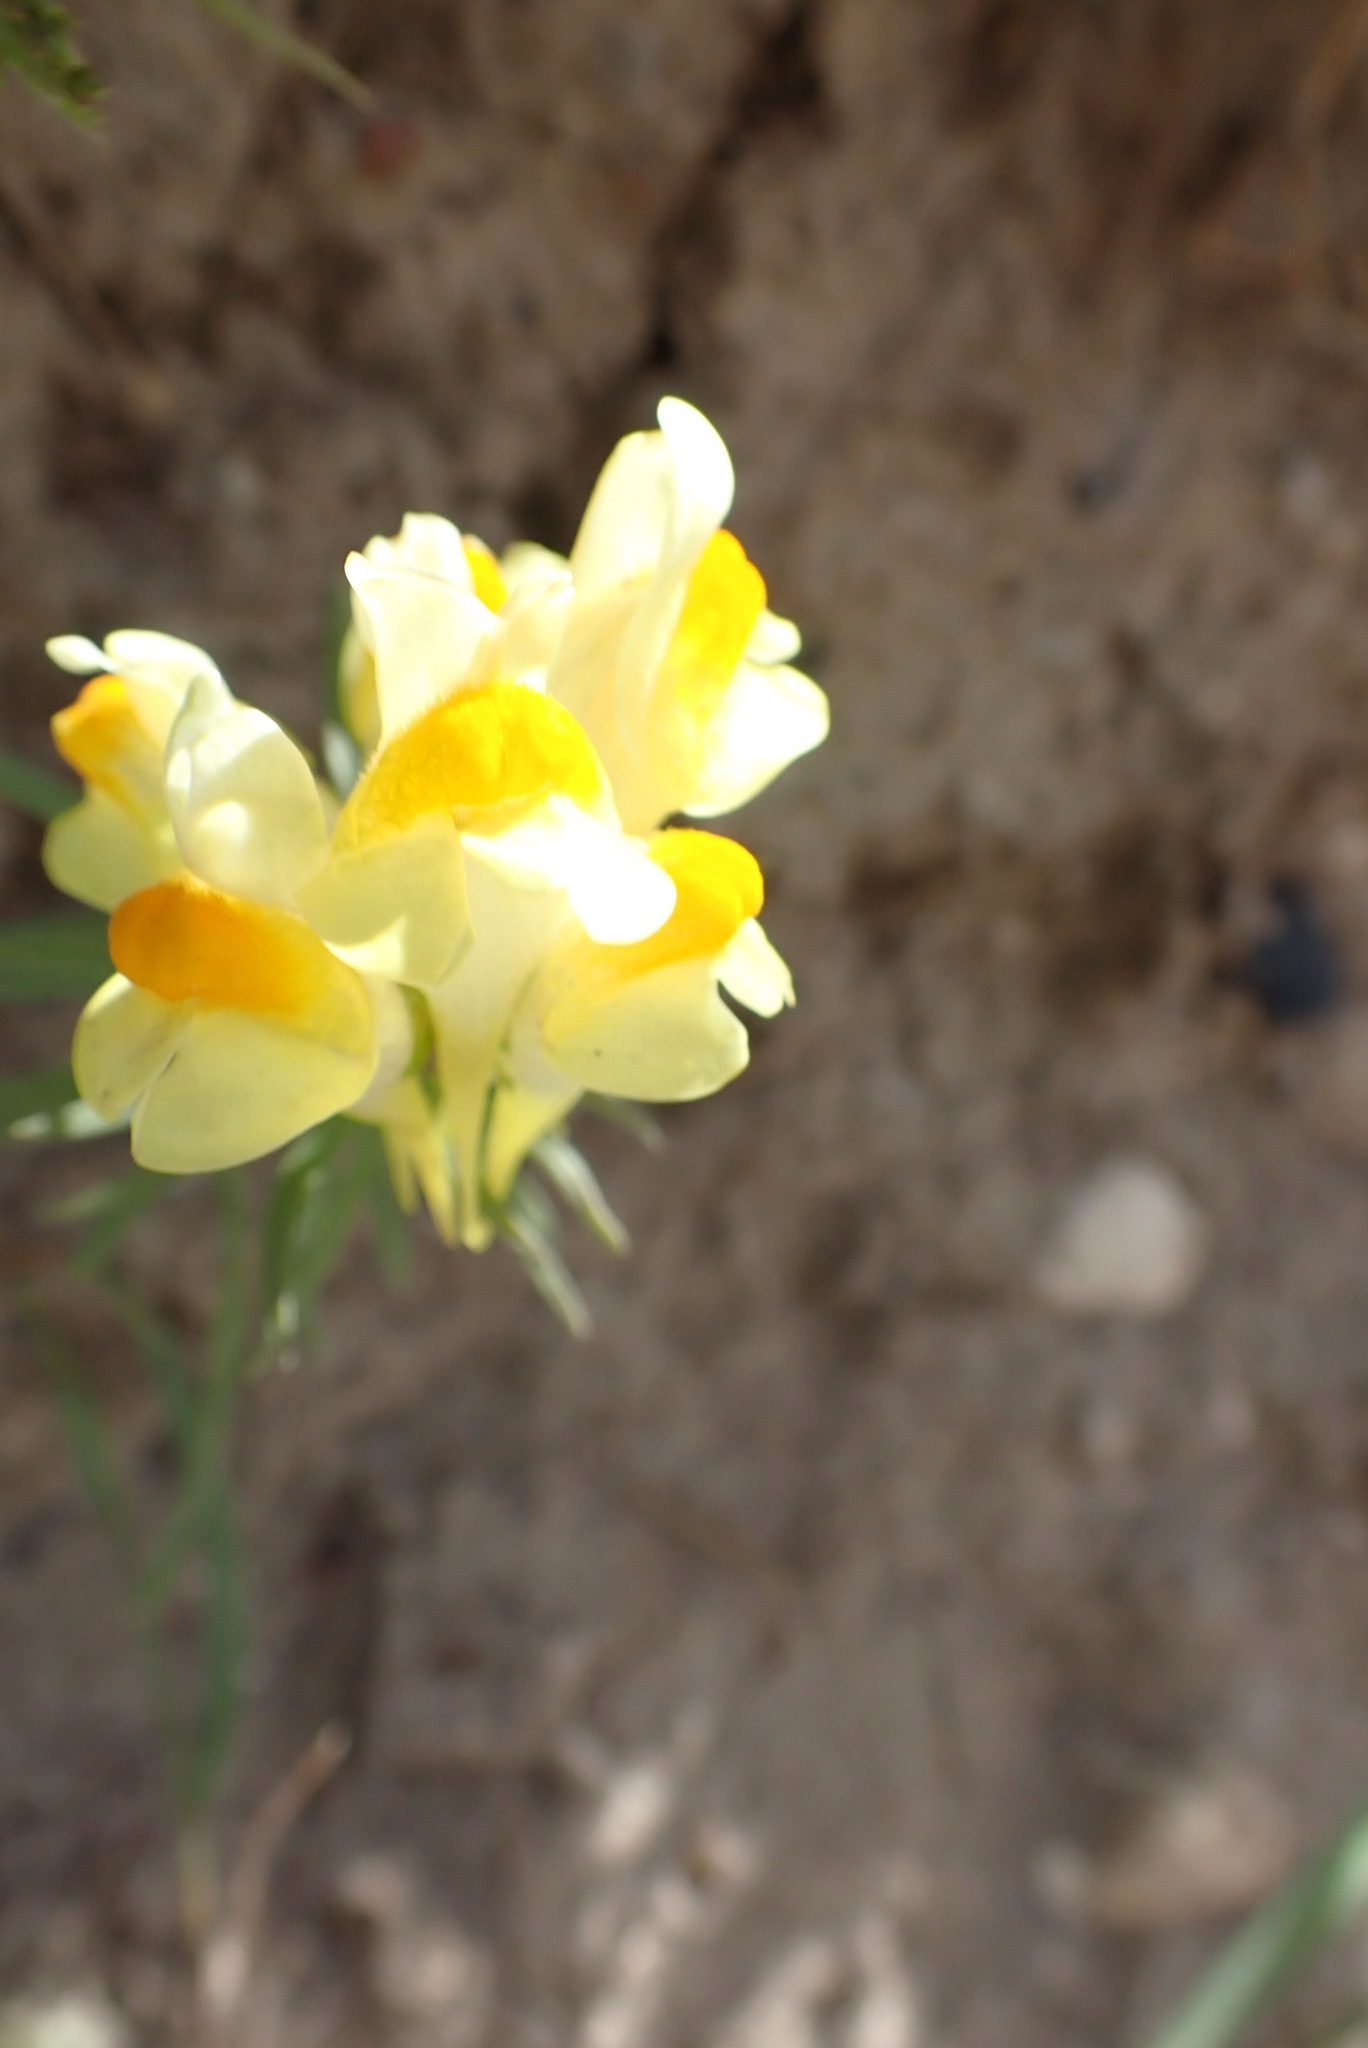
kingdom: Plantae
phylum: Tracheophyta
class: Magnoliopsida
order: Lamiales
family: Plantaginaceae
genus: Linaria
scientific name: Linaria vulgaris
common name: Butter and eggs
